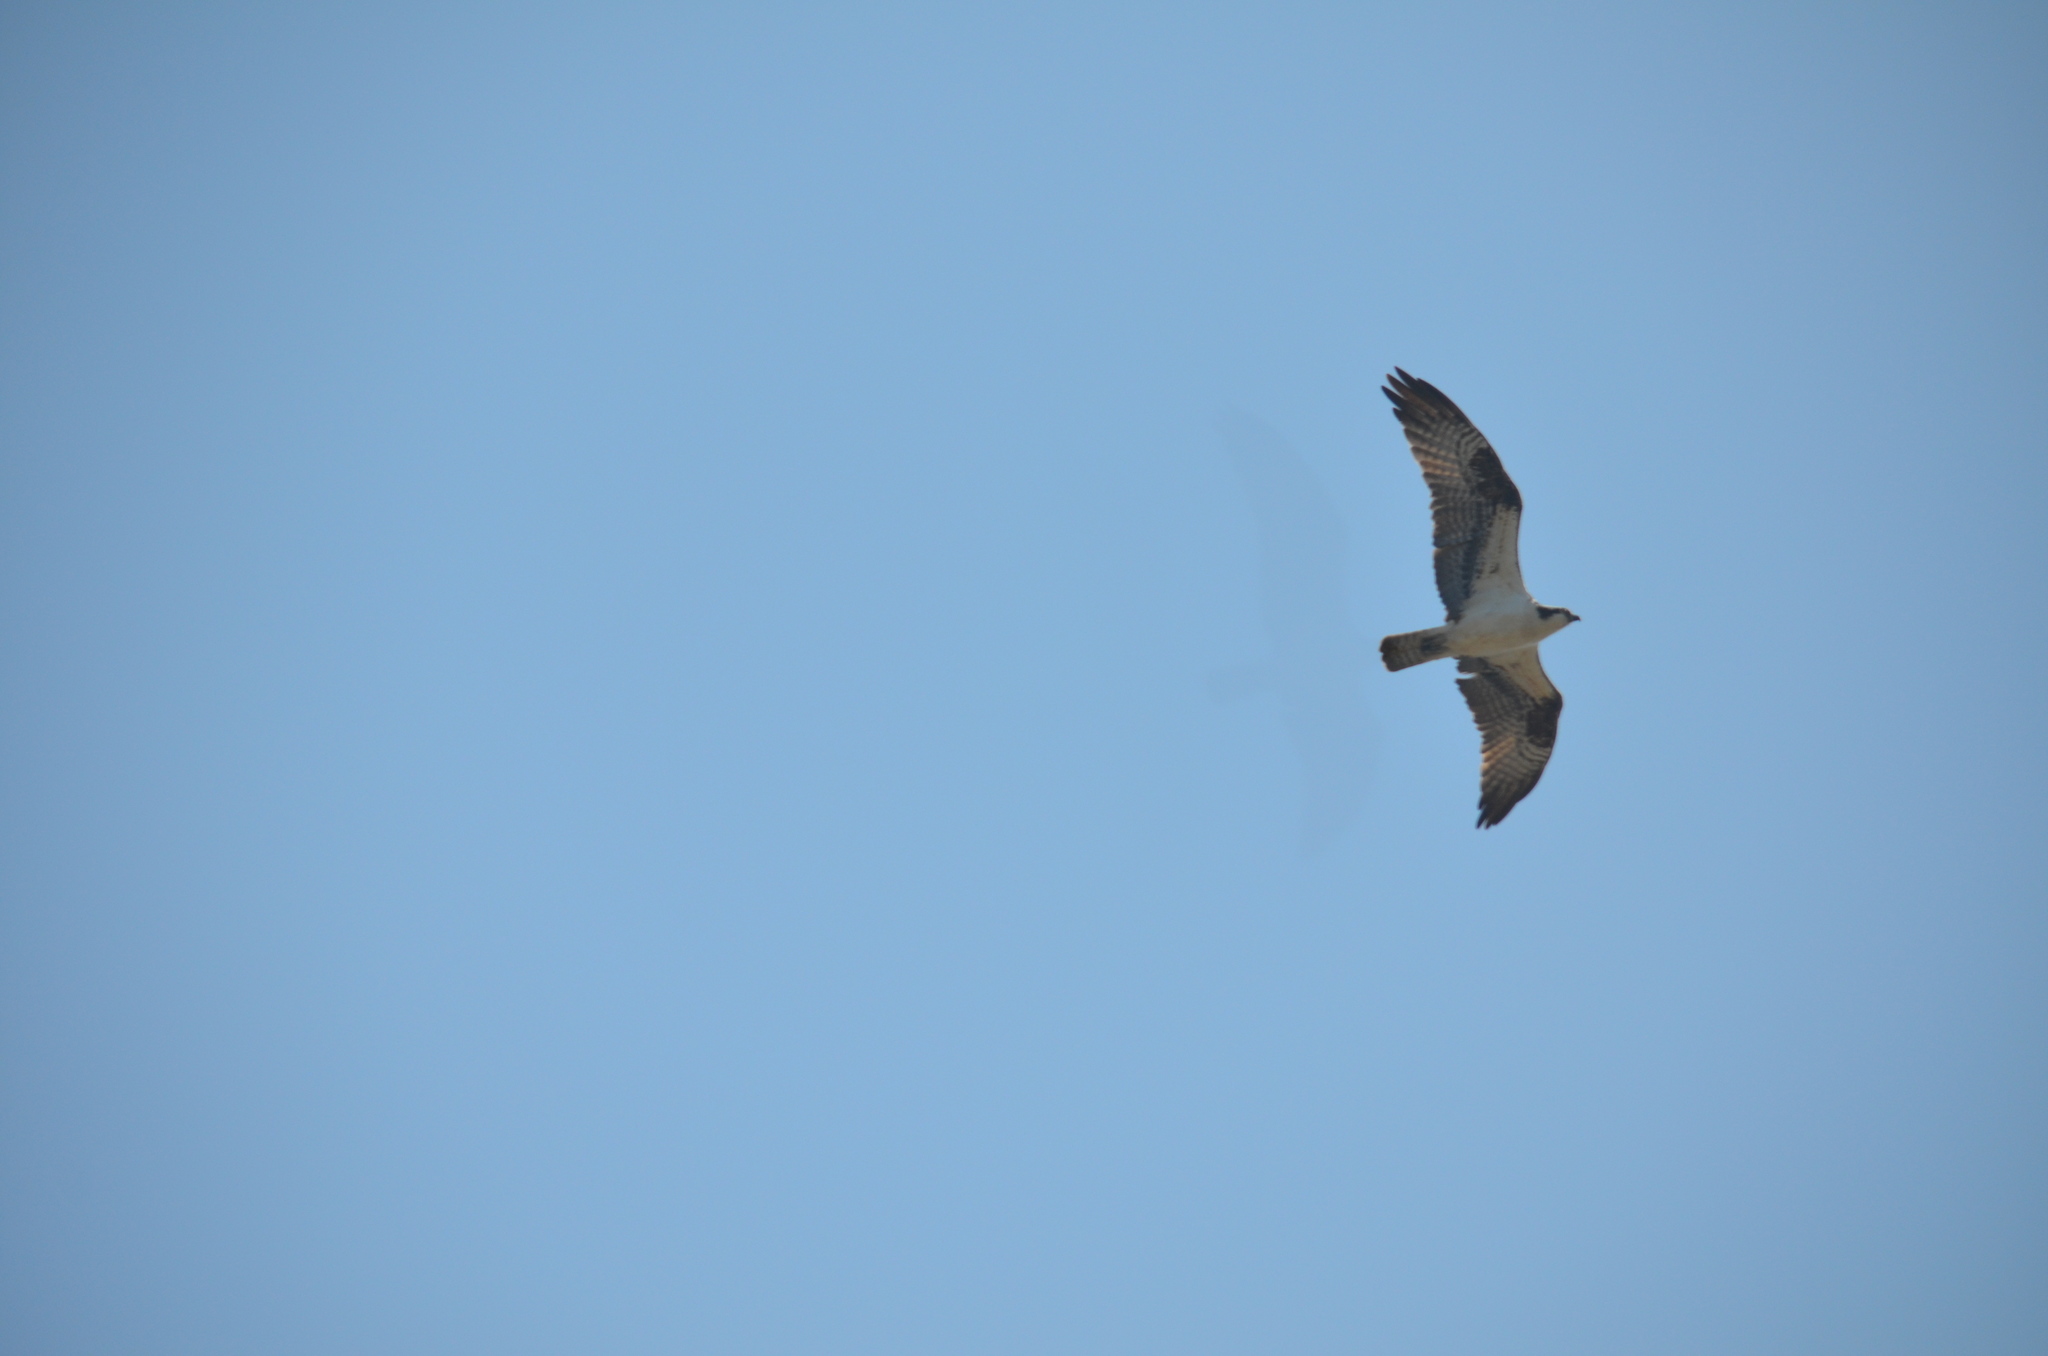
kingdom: Animalia
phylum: Chordata
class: Aves
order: Accipitriformes
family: Pandionidae
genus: Pandion
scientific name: Pandion haliaetus
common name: Osprey
